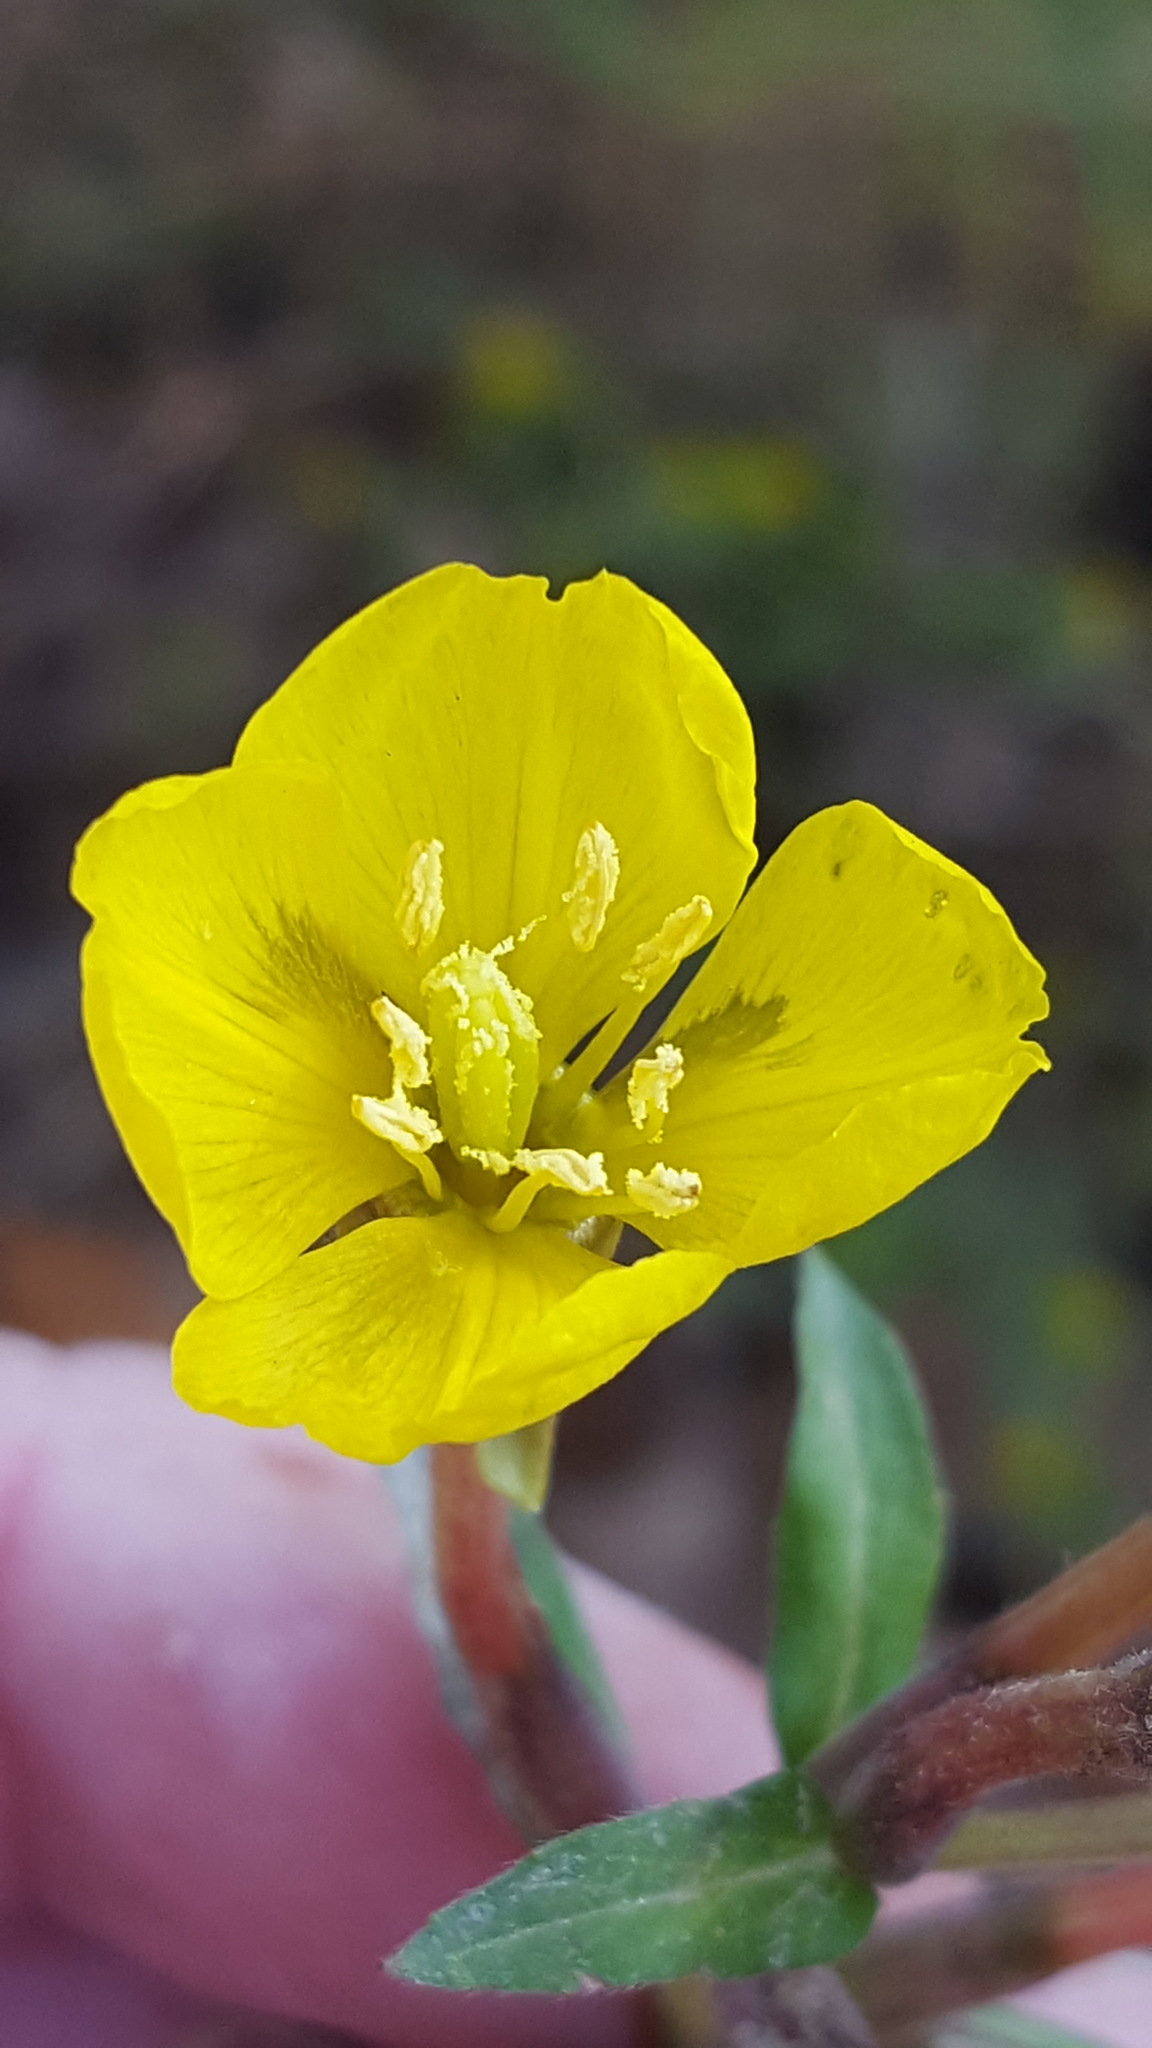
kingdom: Plantae
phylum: Tracheophyta
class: Magnoliopsida
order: Myrtales
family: Onagraceae
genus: Oenothera
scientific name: Oenothera parviflora
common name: Least evening-primrose
